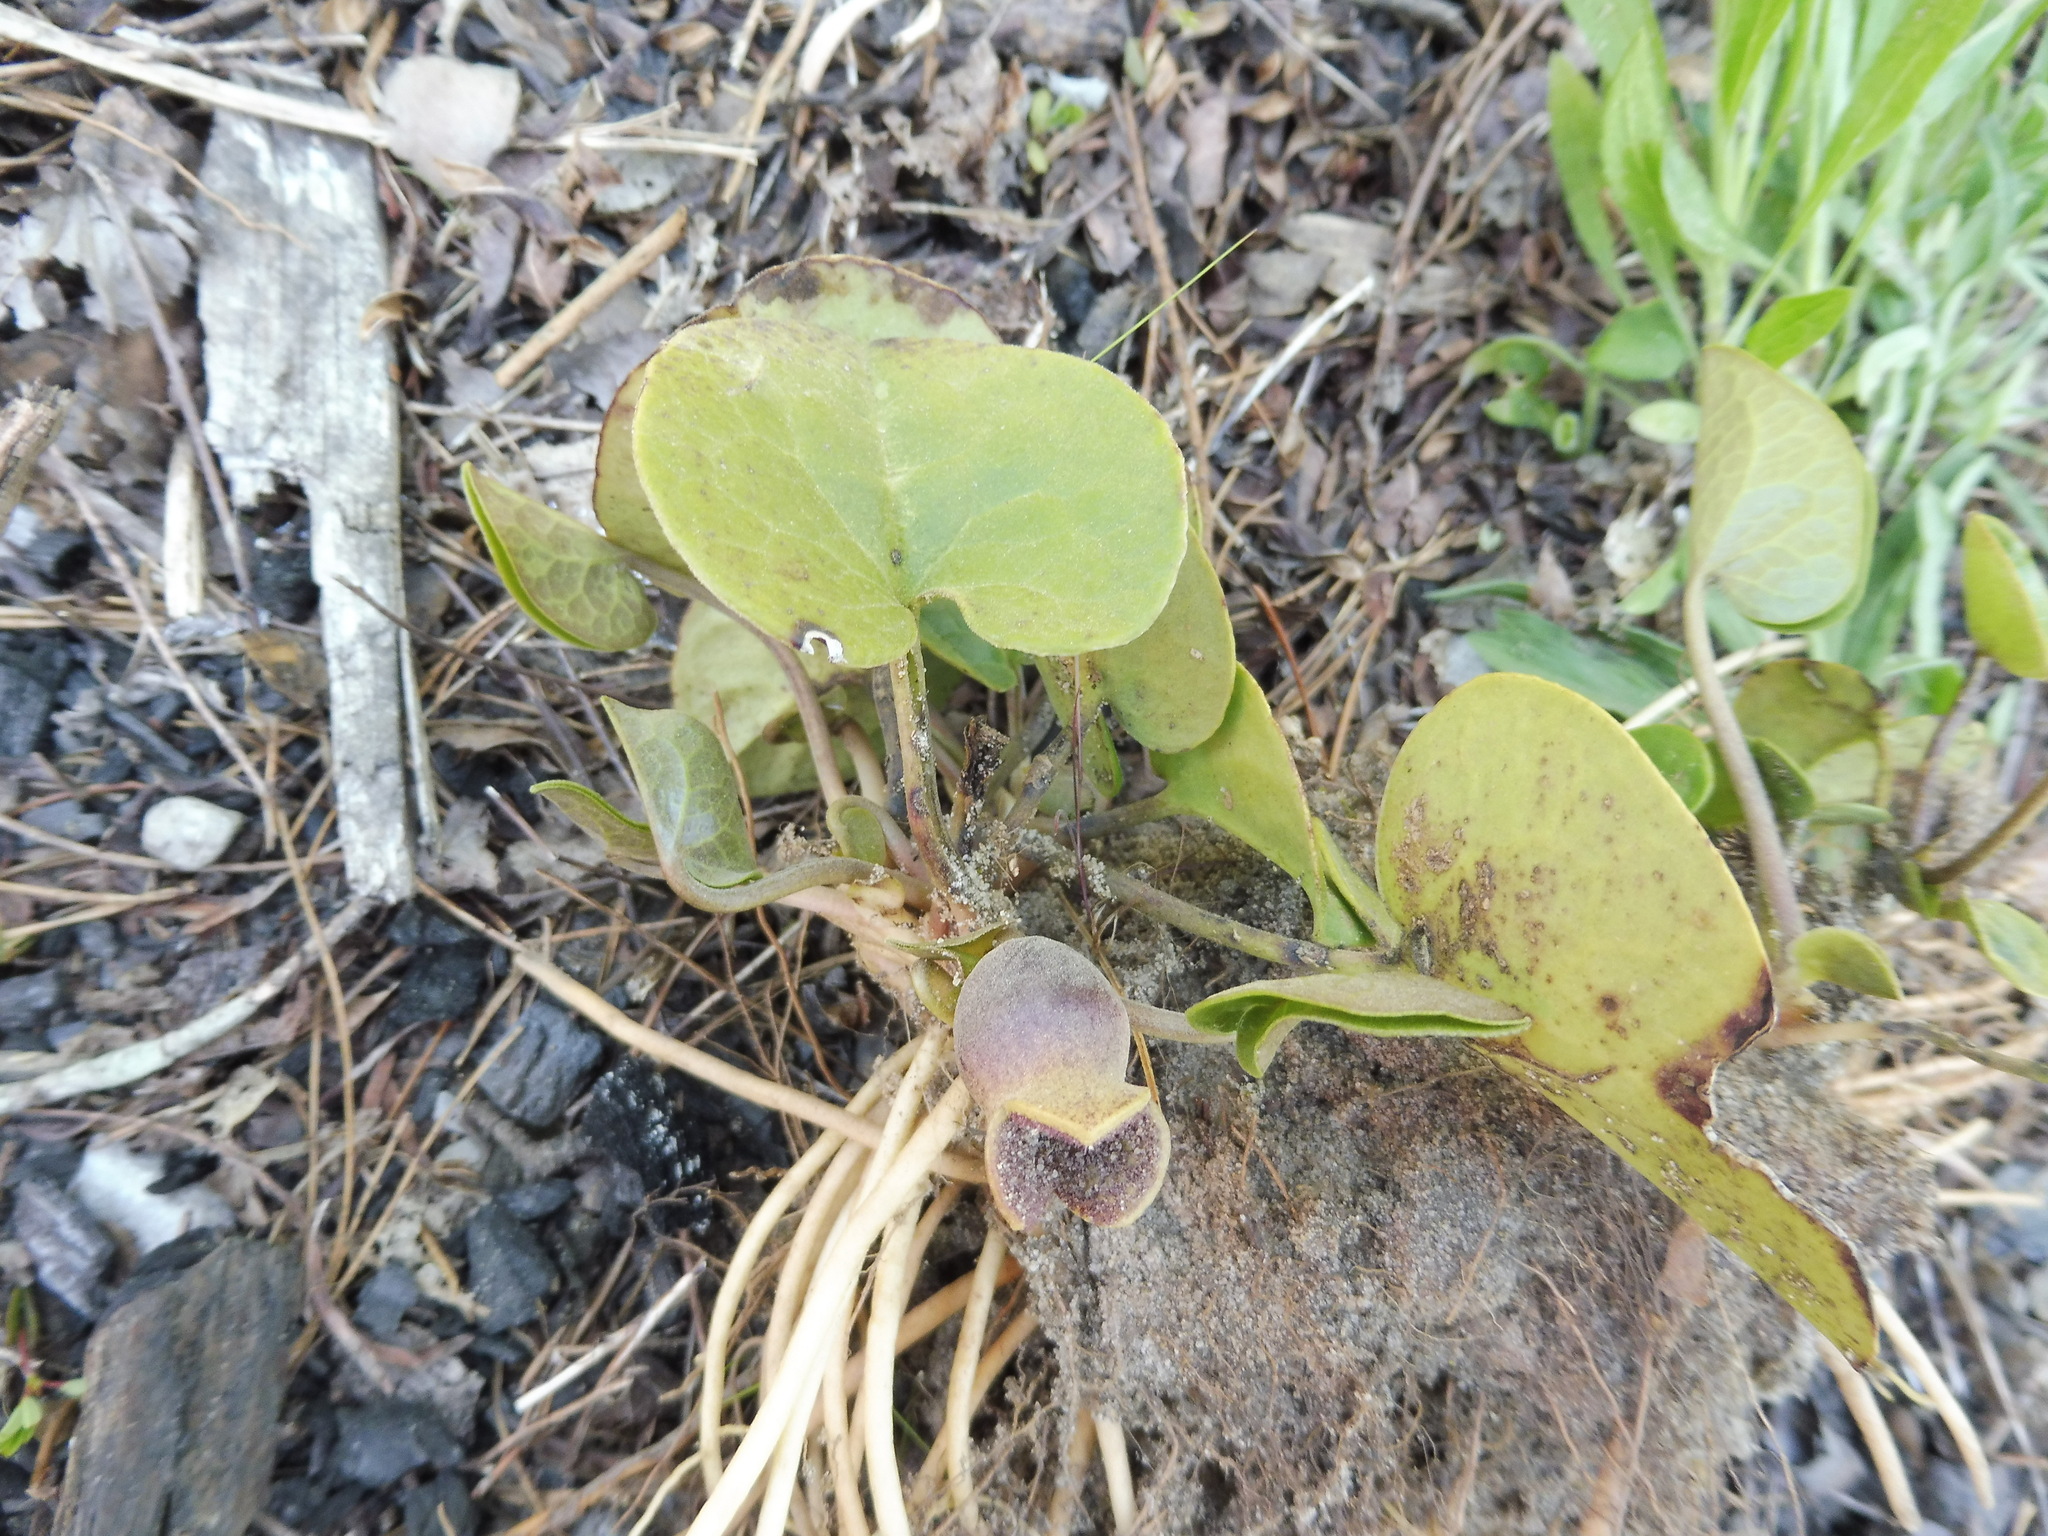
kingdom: Plantae
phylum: Tracheophyta
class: Magnoliopsida
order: Piperales
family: Aristolochiaceae
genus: Hexastylis
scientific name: Hexastylis contracta
